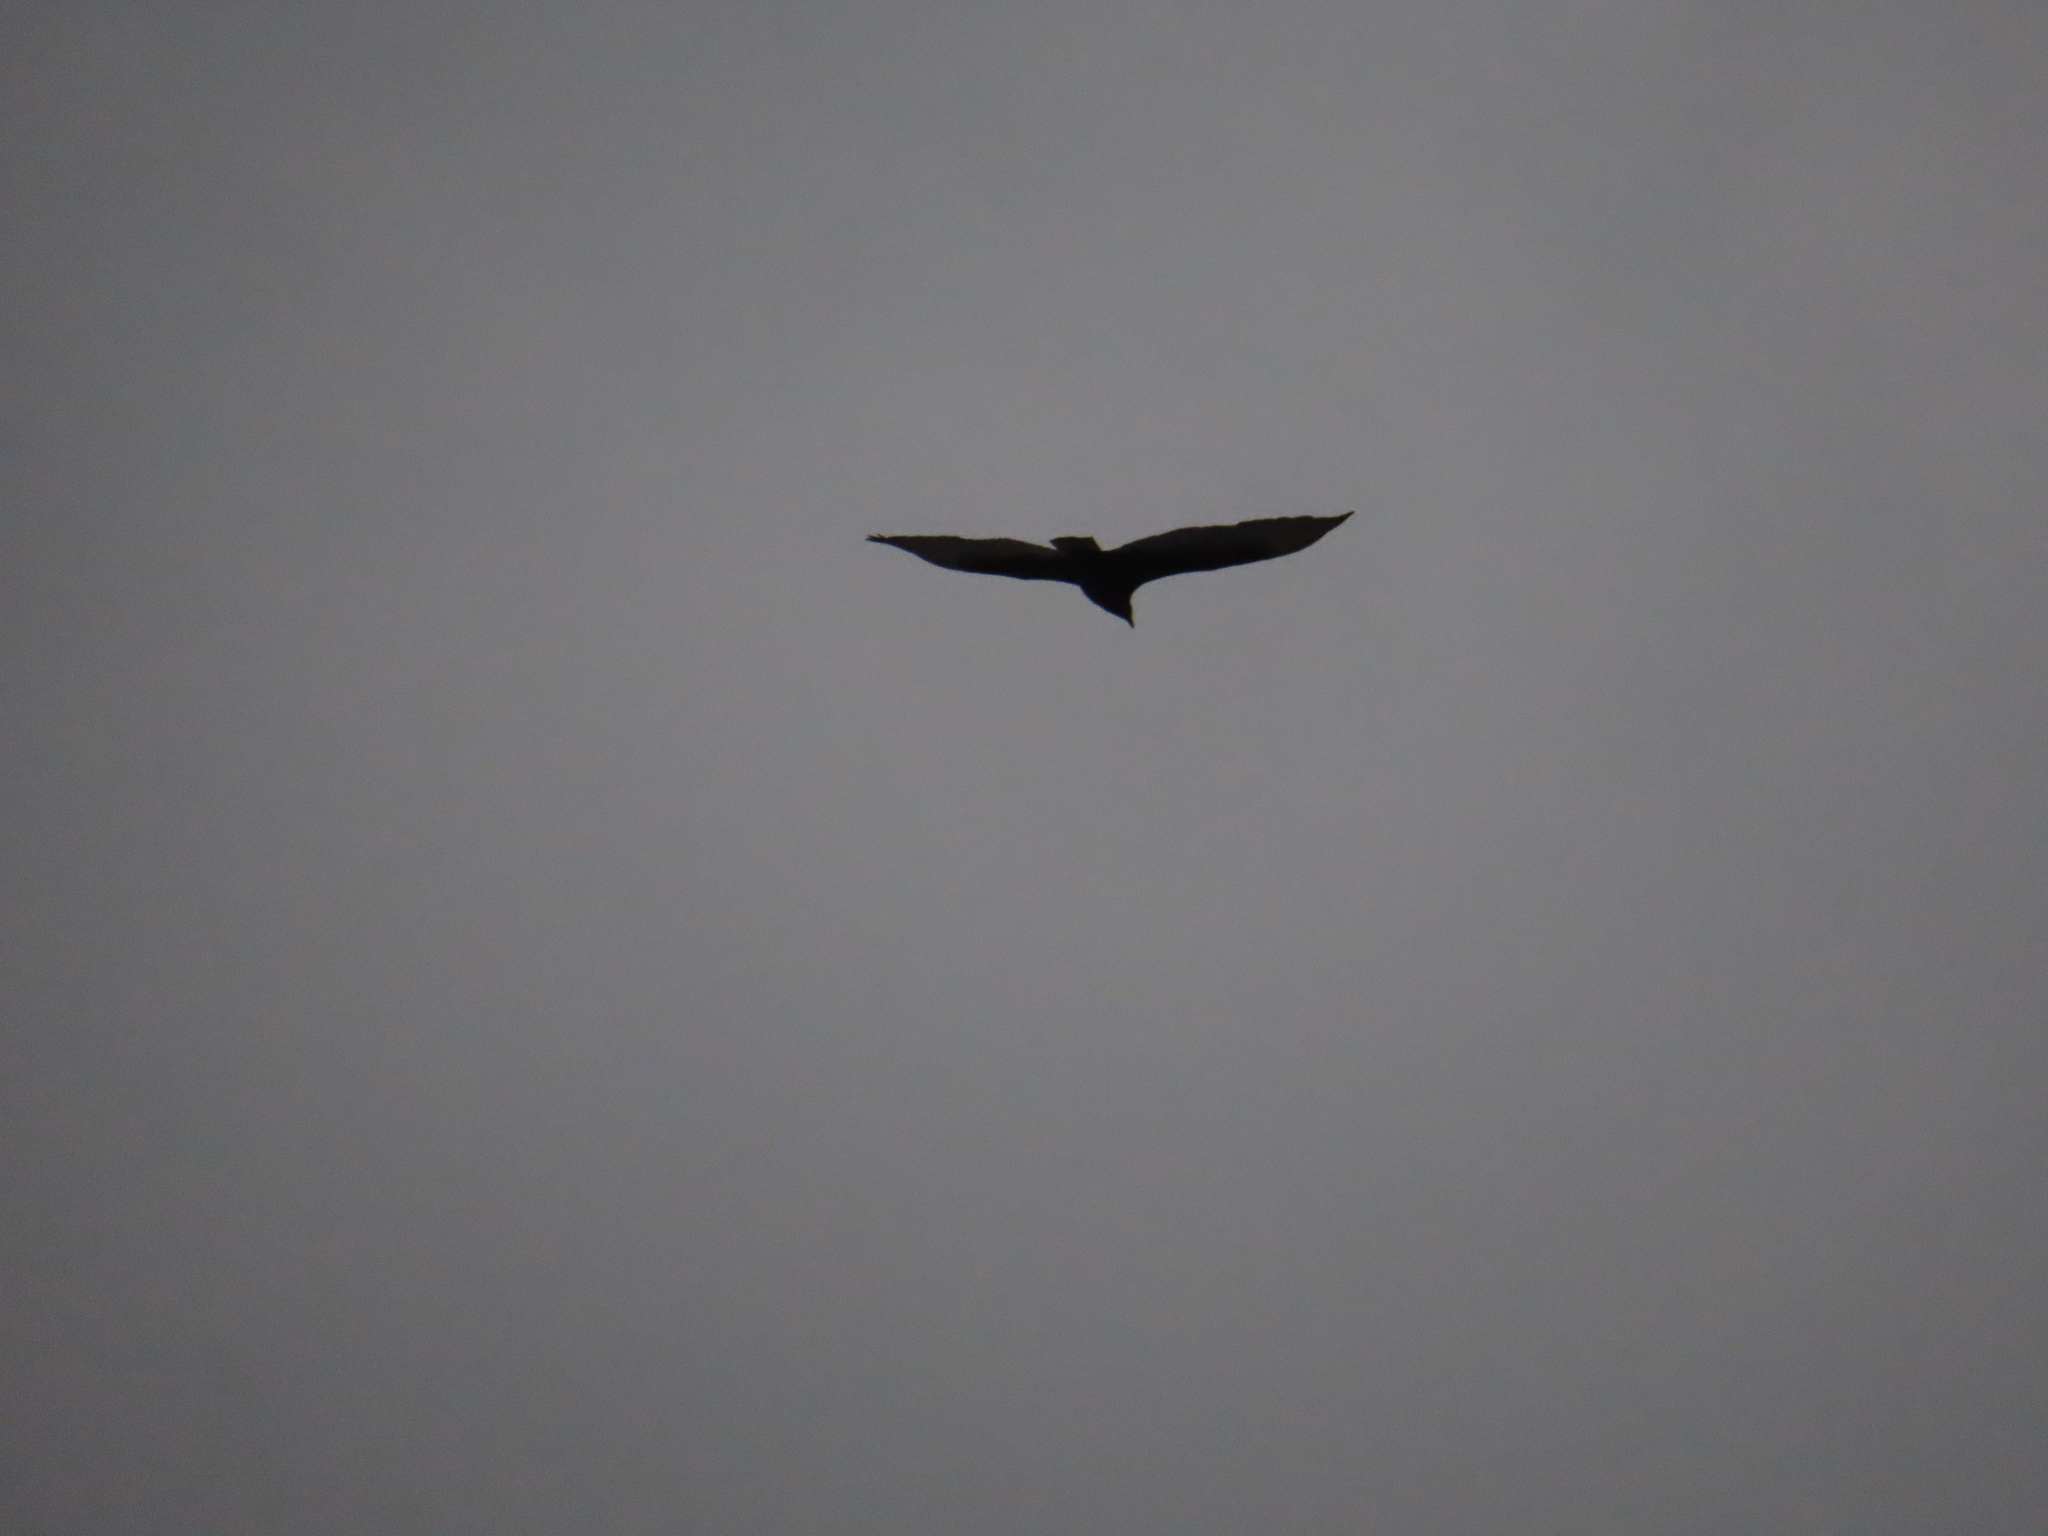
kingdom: Animalia
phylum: Chordata
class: Aves
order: Accipitriformes
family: Cathartidae
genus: Cathartes
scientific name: Cathartes aura
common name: Turkey vulture
